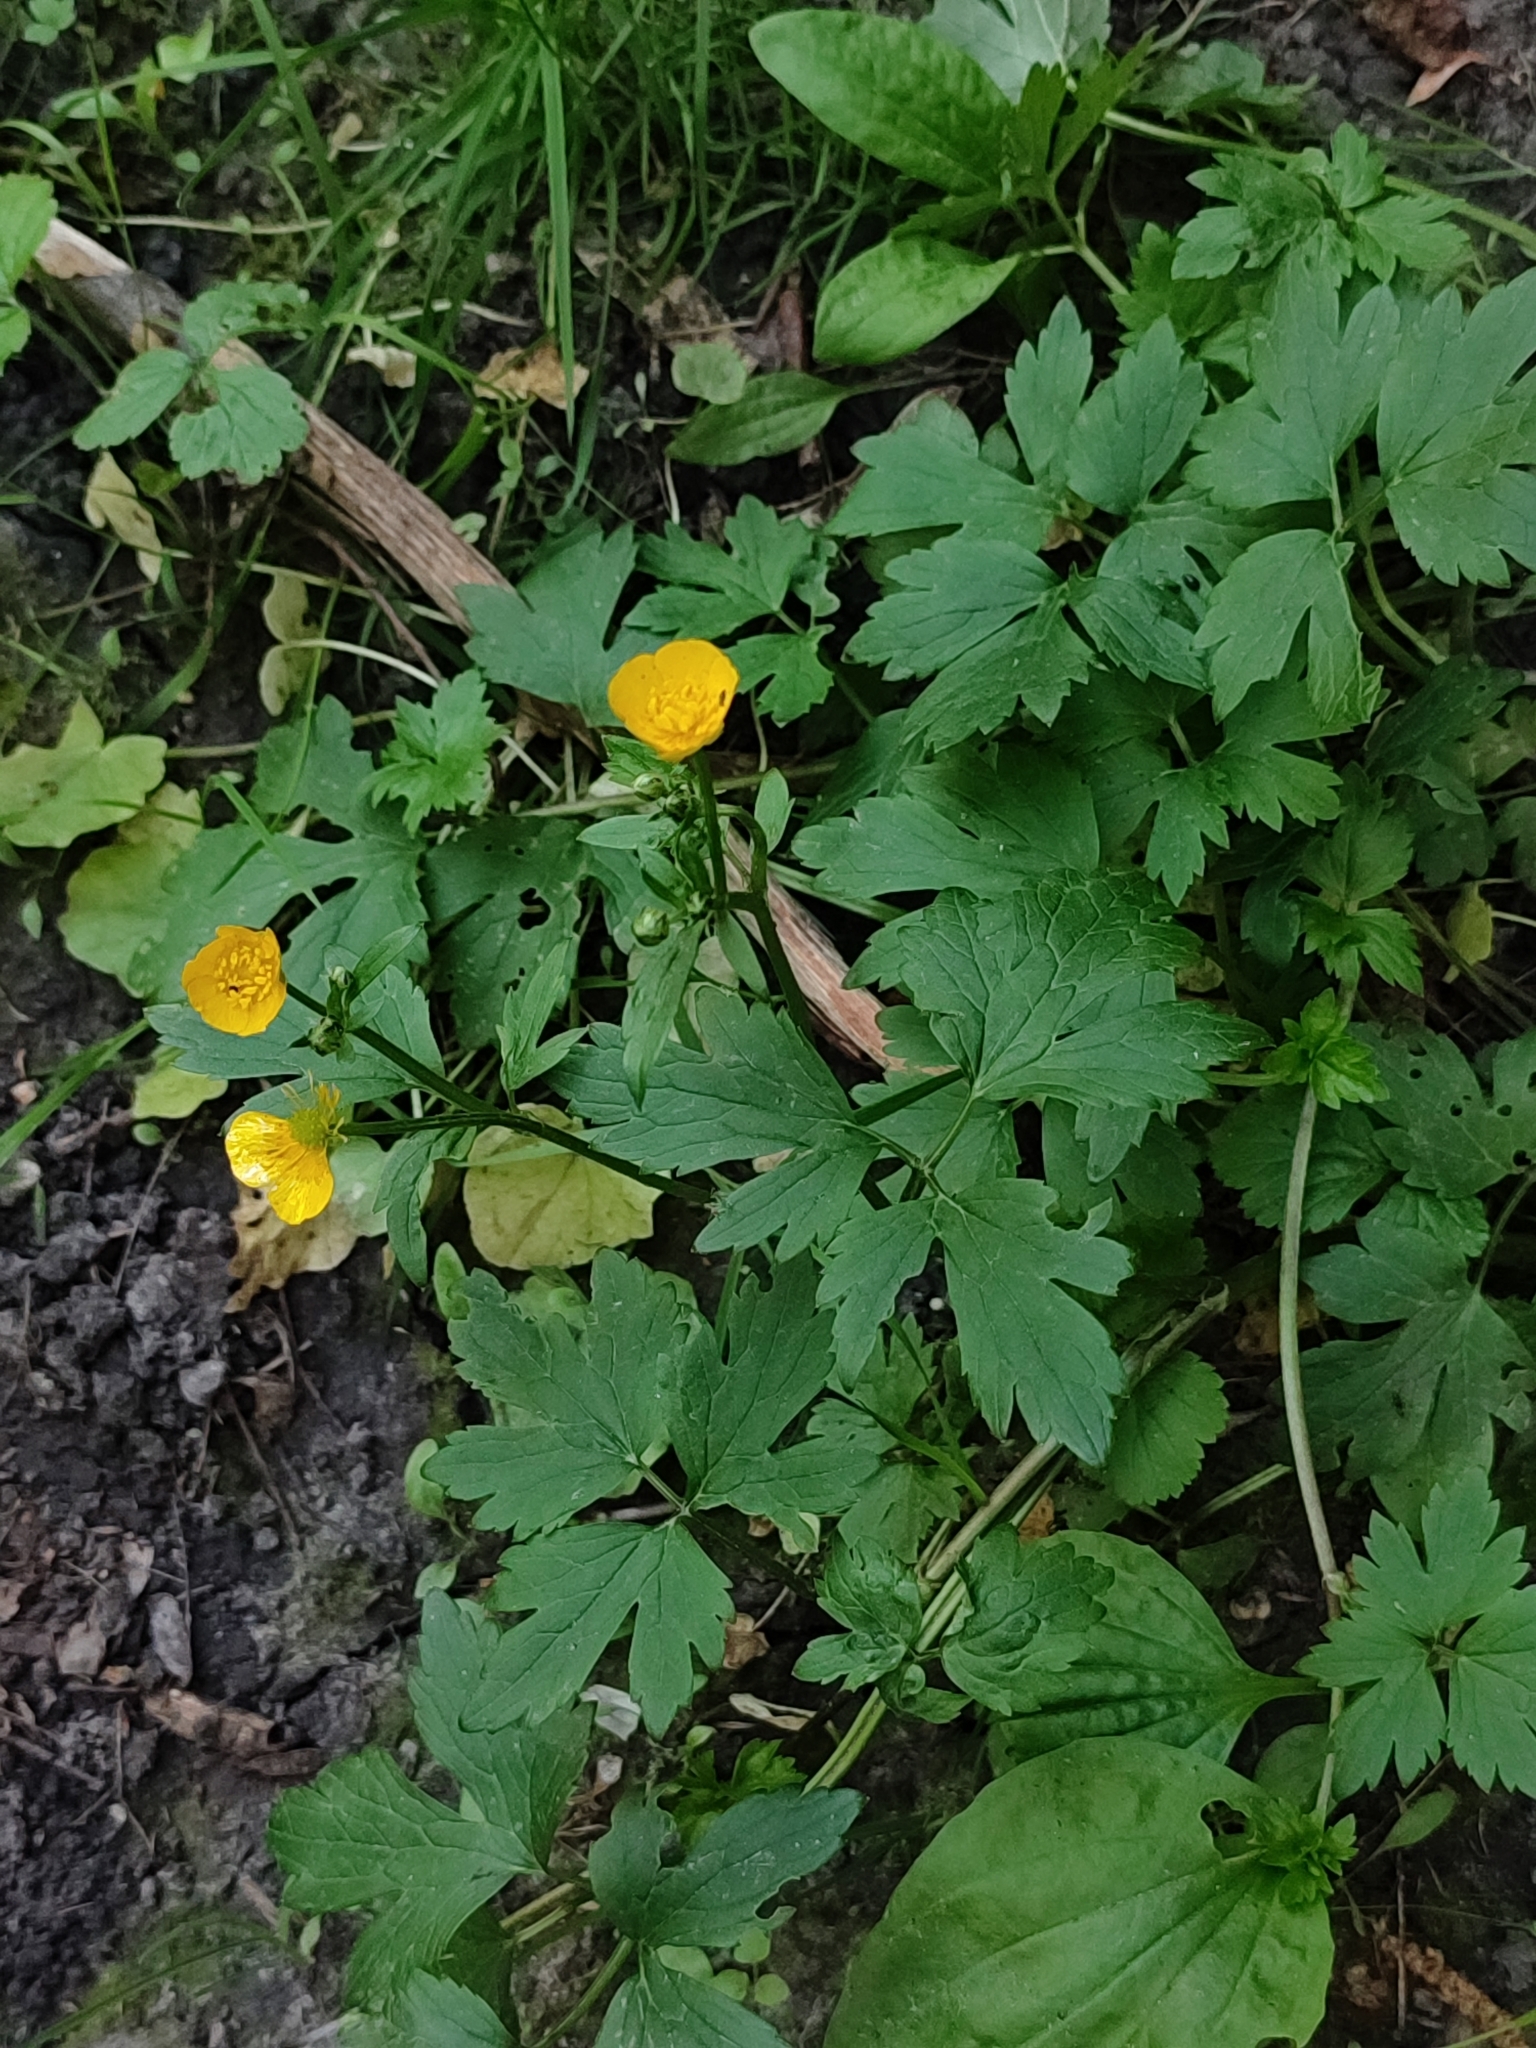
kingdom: Plantae
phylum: Tracheophyta
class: Magnoliopsida
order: Ranunculales
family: Ranunculaceae
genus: Ranunculus
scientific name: Ranunculus repens
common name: Creeping buttercup
